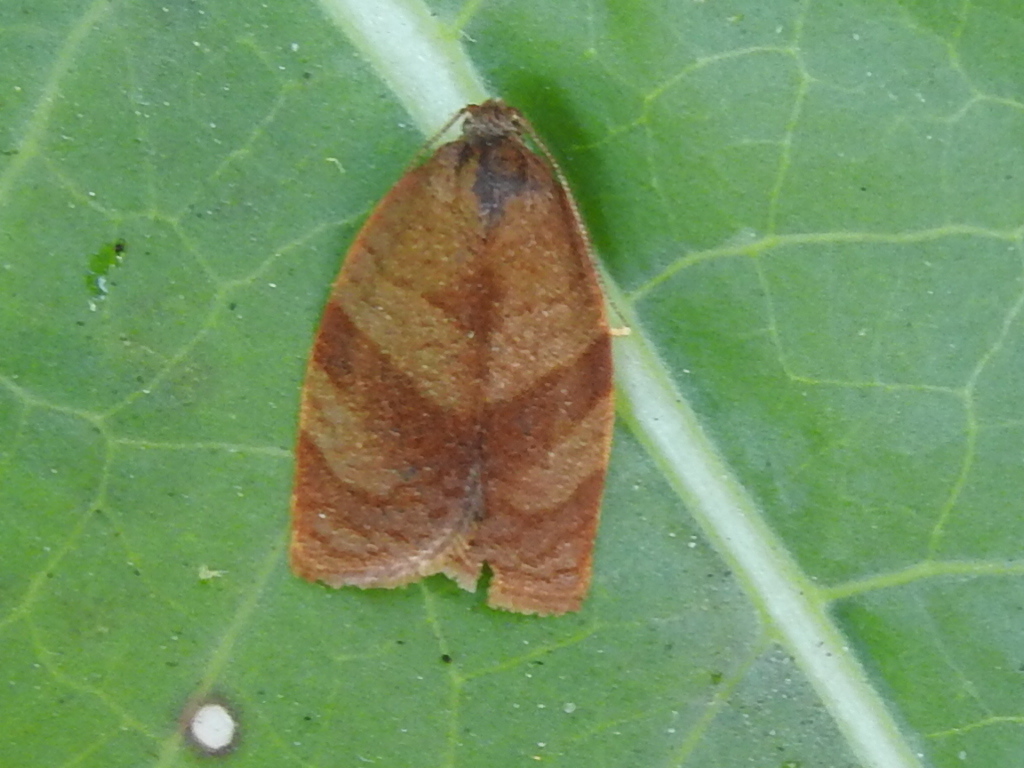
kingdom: Animalia
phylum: Arthropoda
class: Insecta
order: Lepidoptera
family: Tortricidae
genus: Cacoecimorpha
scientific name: Cacoecimorpha pronubana
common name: Carnation tortrix
